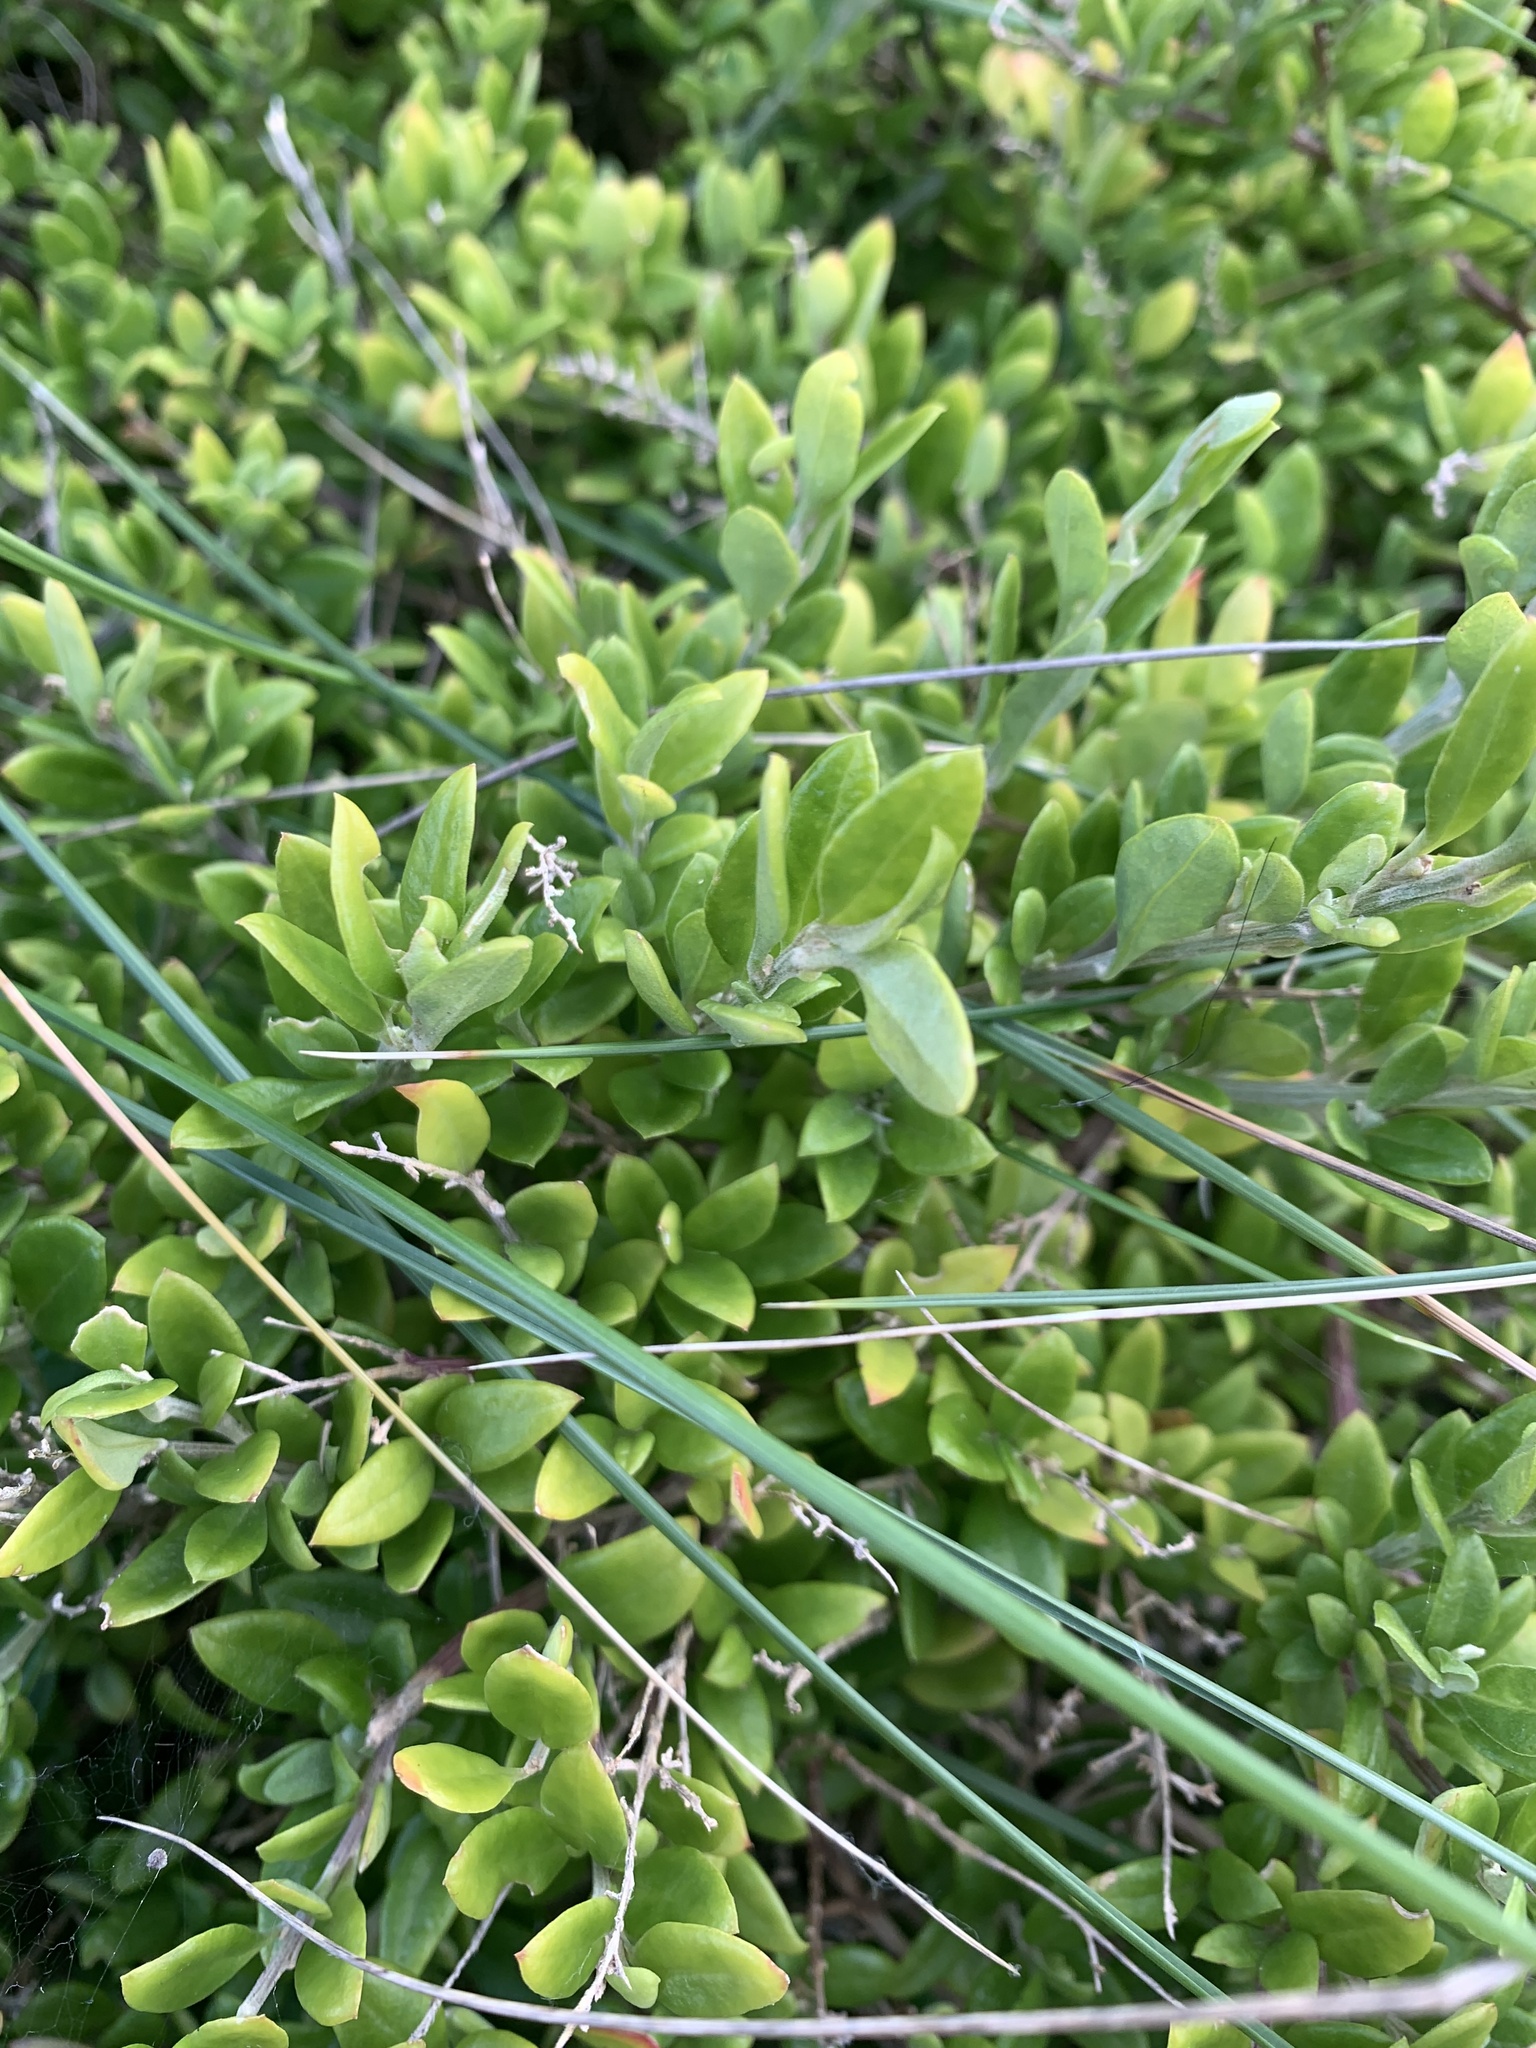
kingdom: Plantae
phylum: Tracheophyta
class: Magnoliopsida
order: Caryophyllales
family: Amaranthaceae
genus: Chenopodium
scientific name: Chenopodium candolleanum
